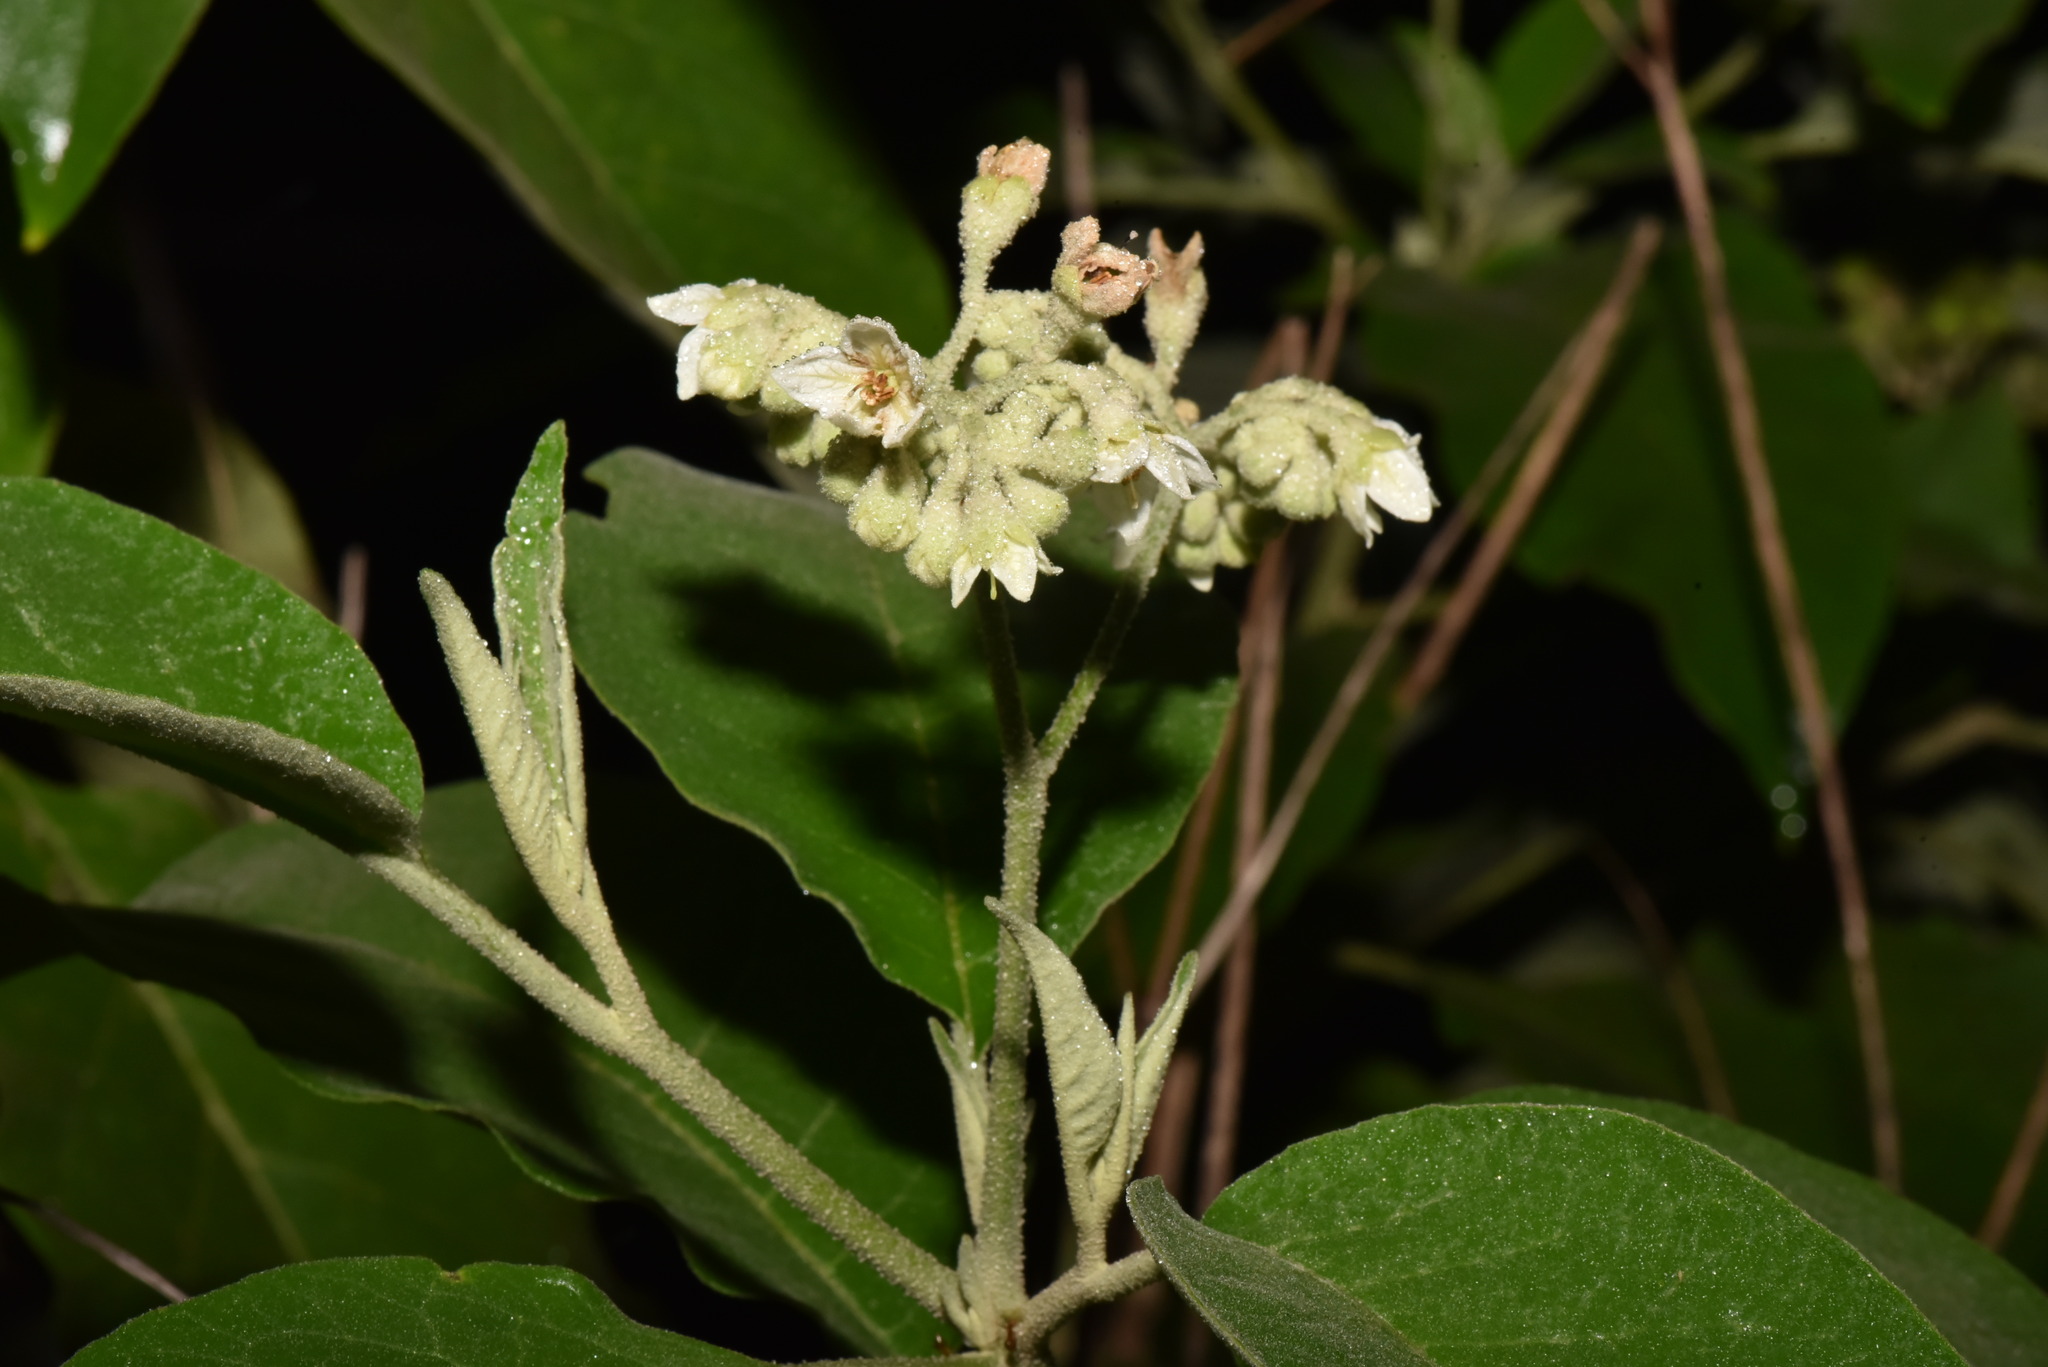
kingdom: Plantae
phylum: Tracheophyta
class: Magnoliopsida
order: Solanales
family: Solanaceae
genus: Solanum
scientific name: Solanum erianthum
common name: Tobacco-tree
